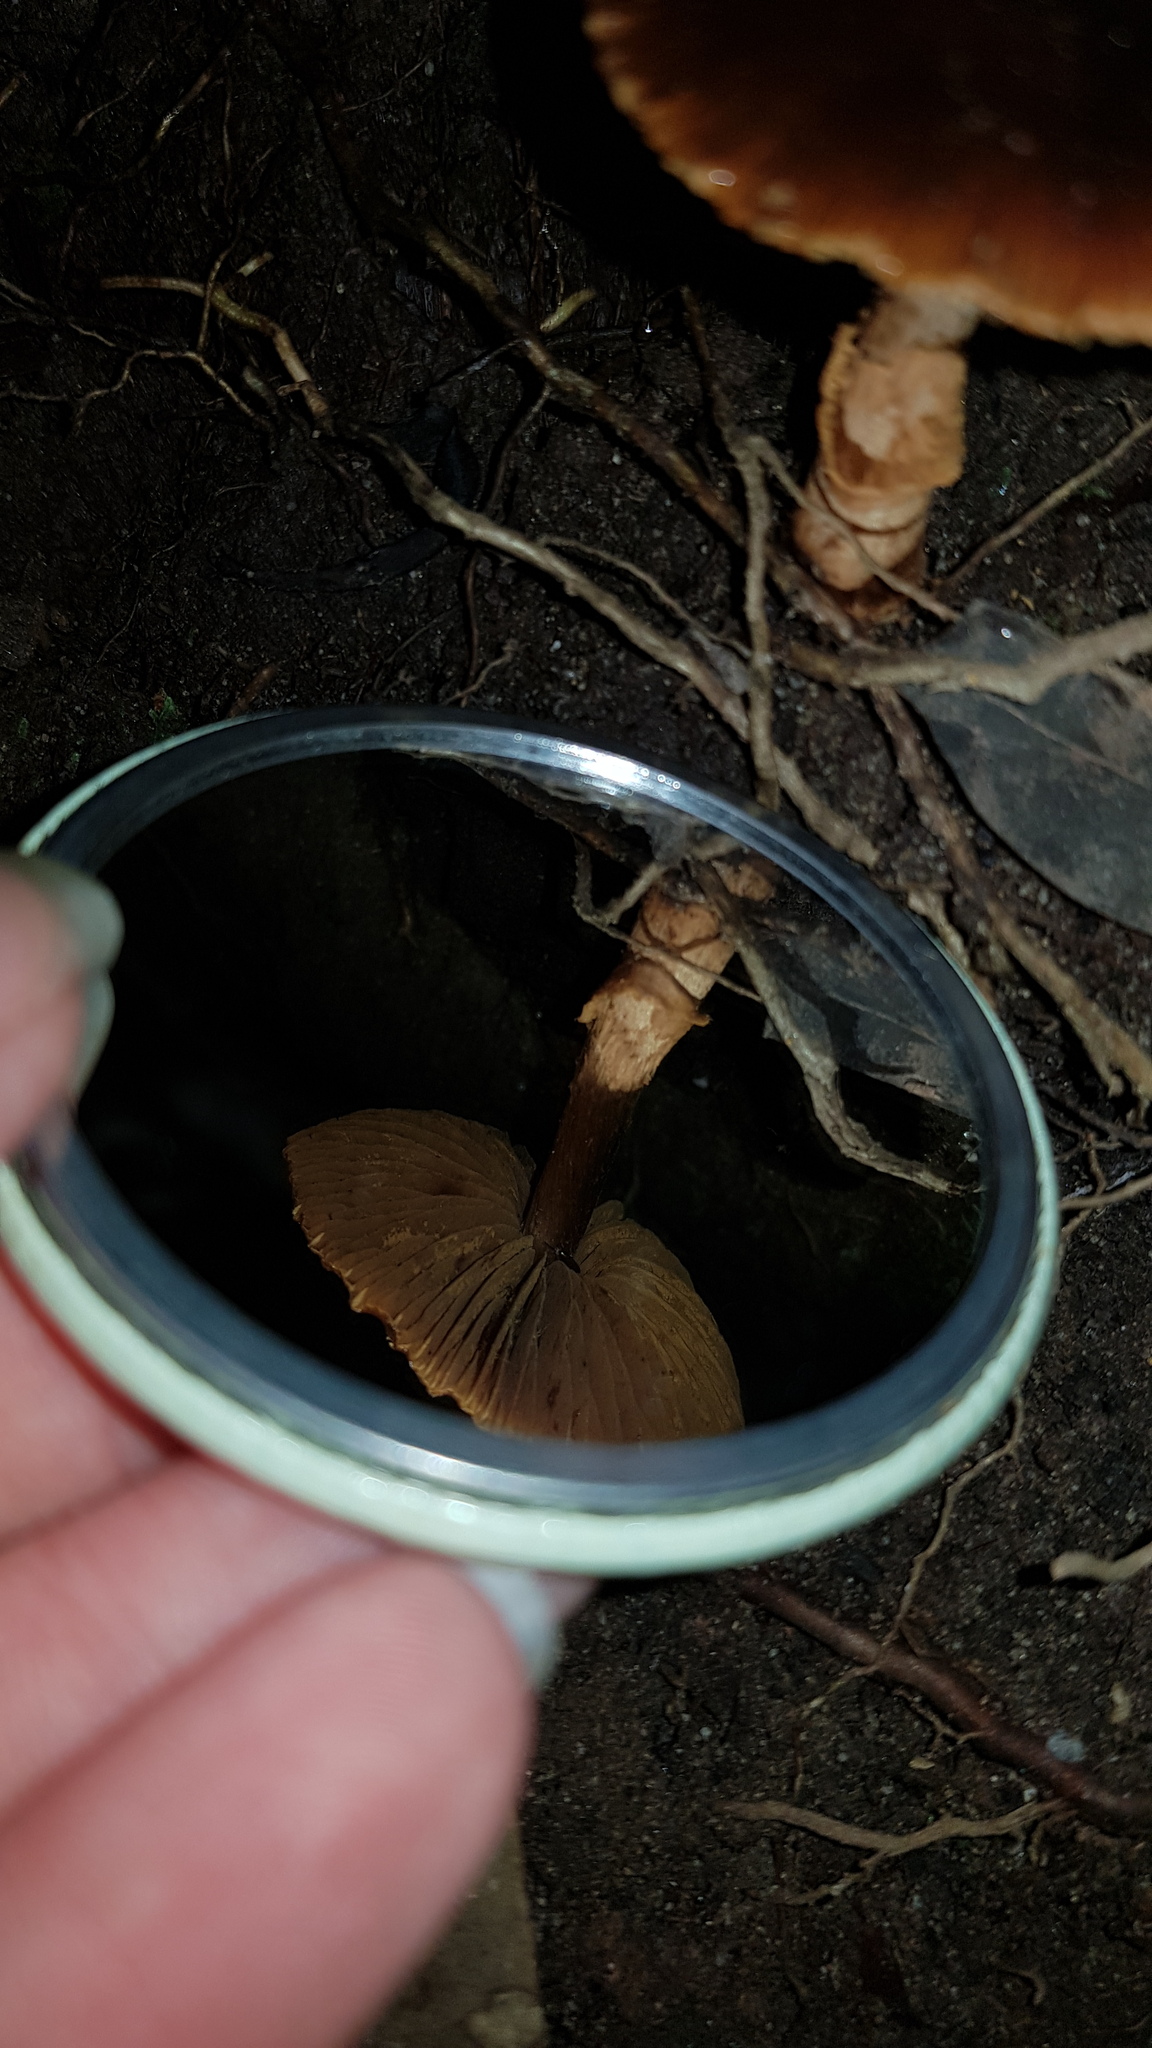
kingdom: Fungi
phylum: Basidiomycota
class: Agaricomycetes
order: Agaricales
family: Bolbitiaceae
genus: Descolea
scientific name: Descolea recedens
